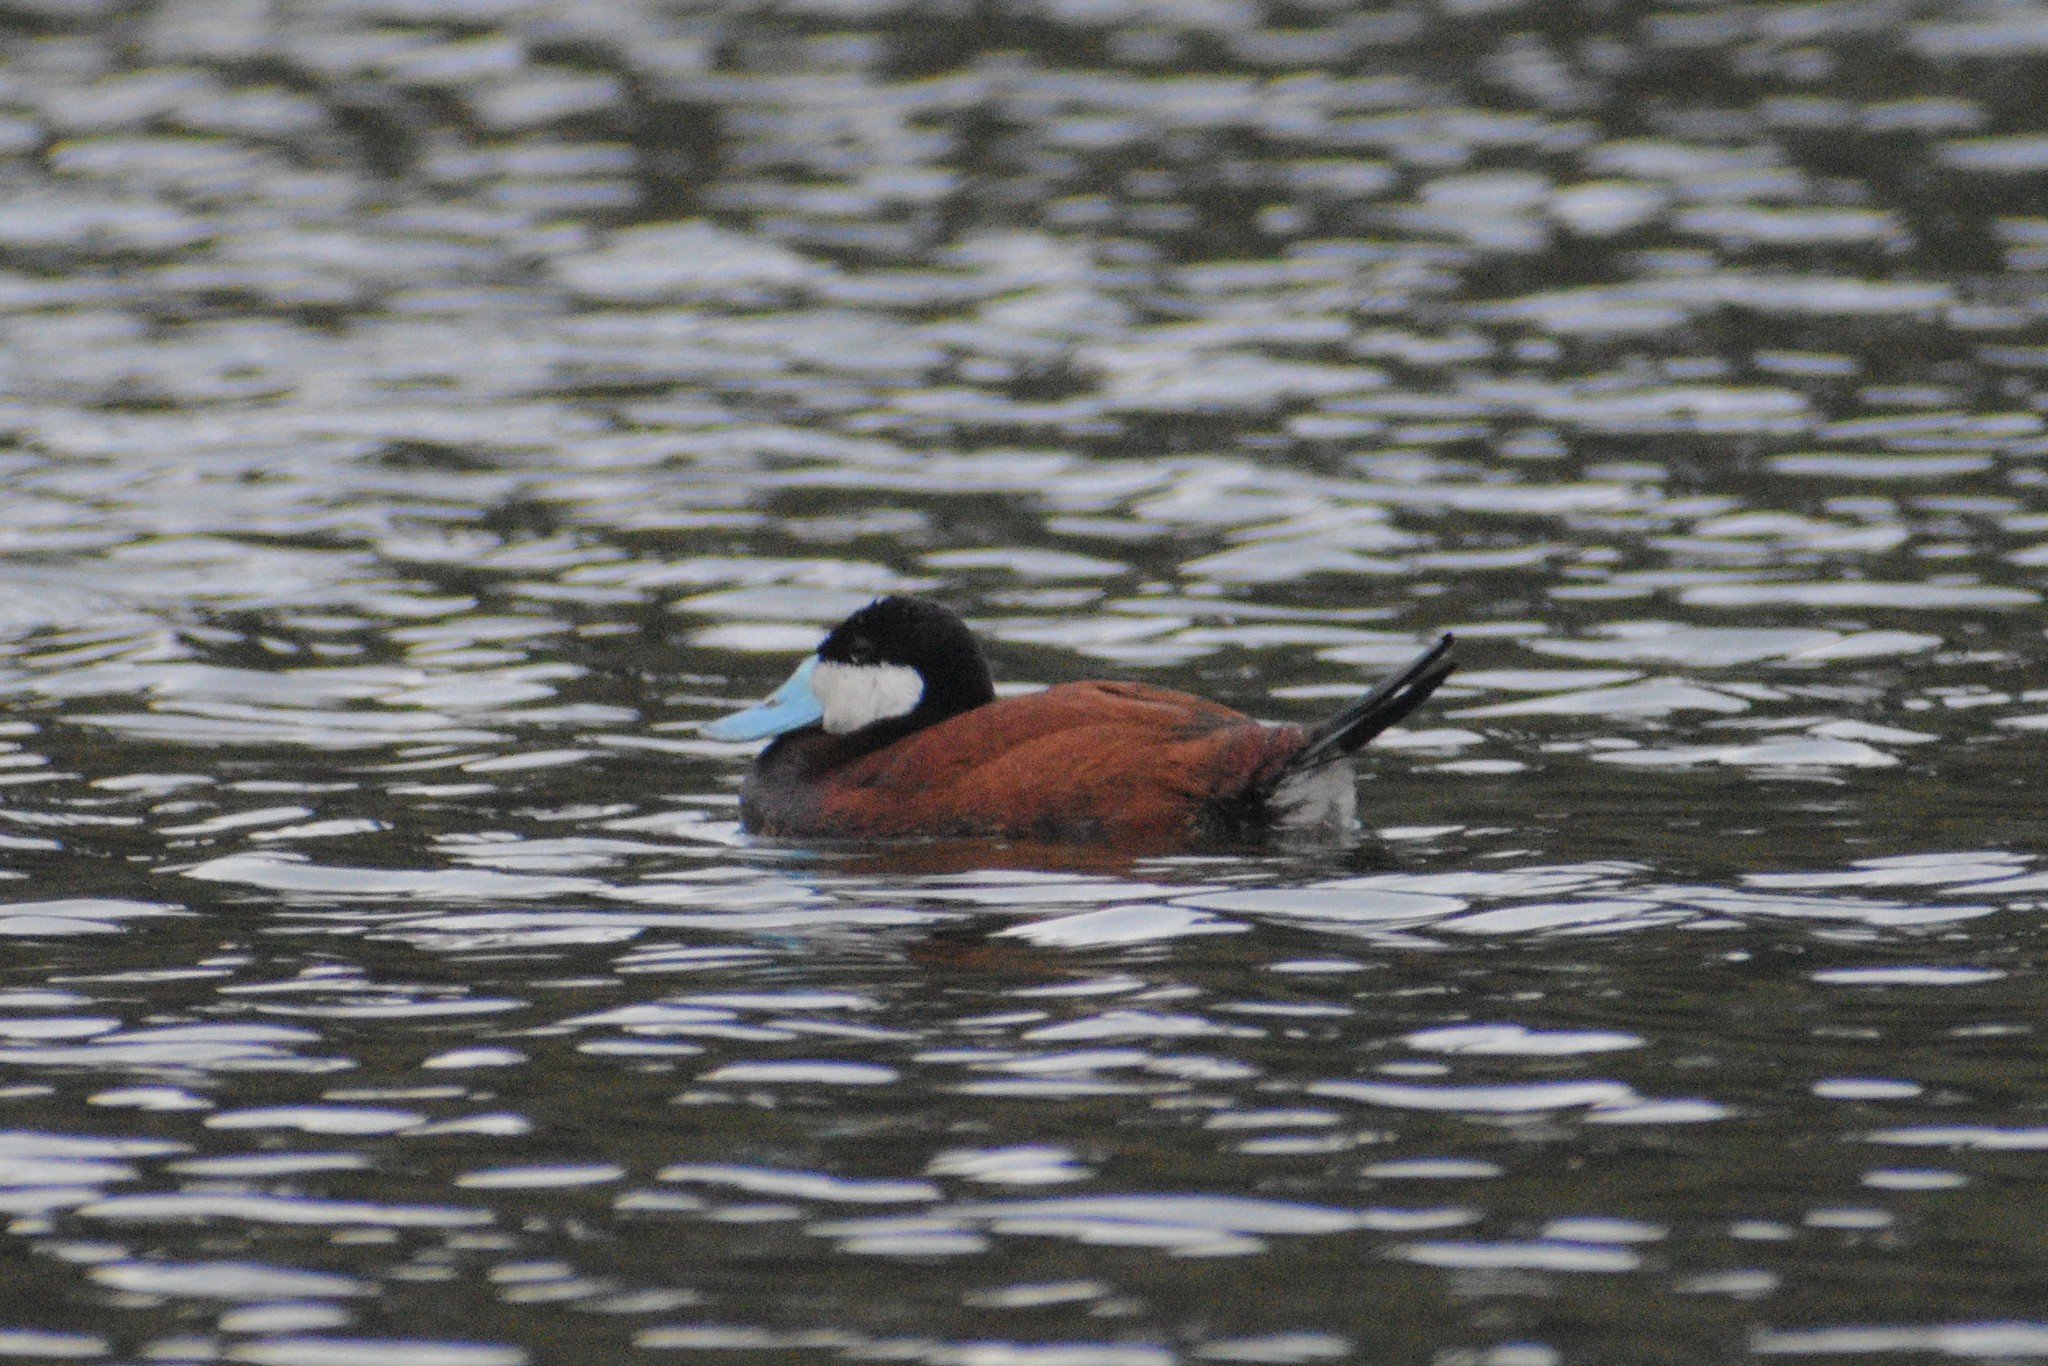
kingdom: Animalia
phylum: Chordata
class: Aves
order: Anseriformes
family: Anatidae
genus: Oxyura
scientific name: Oxyura jamaicensis
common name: Ruddy duck
